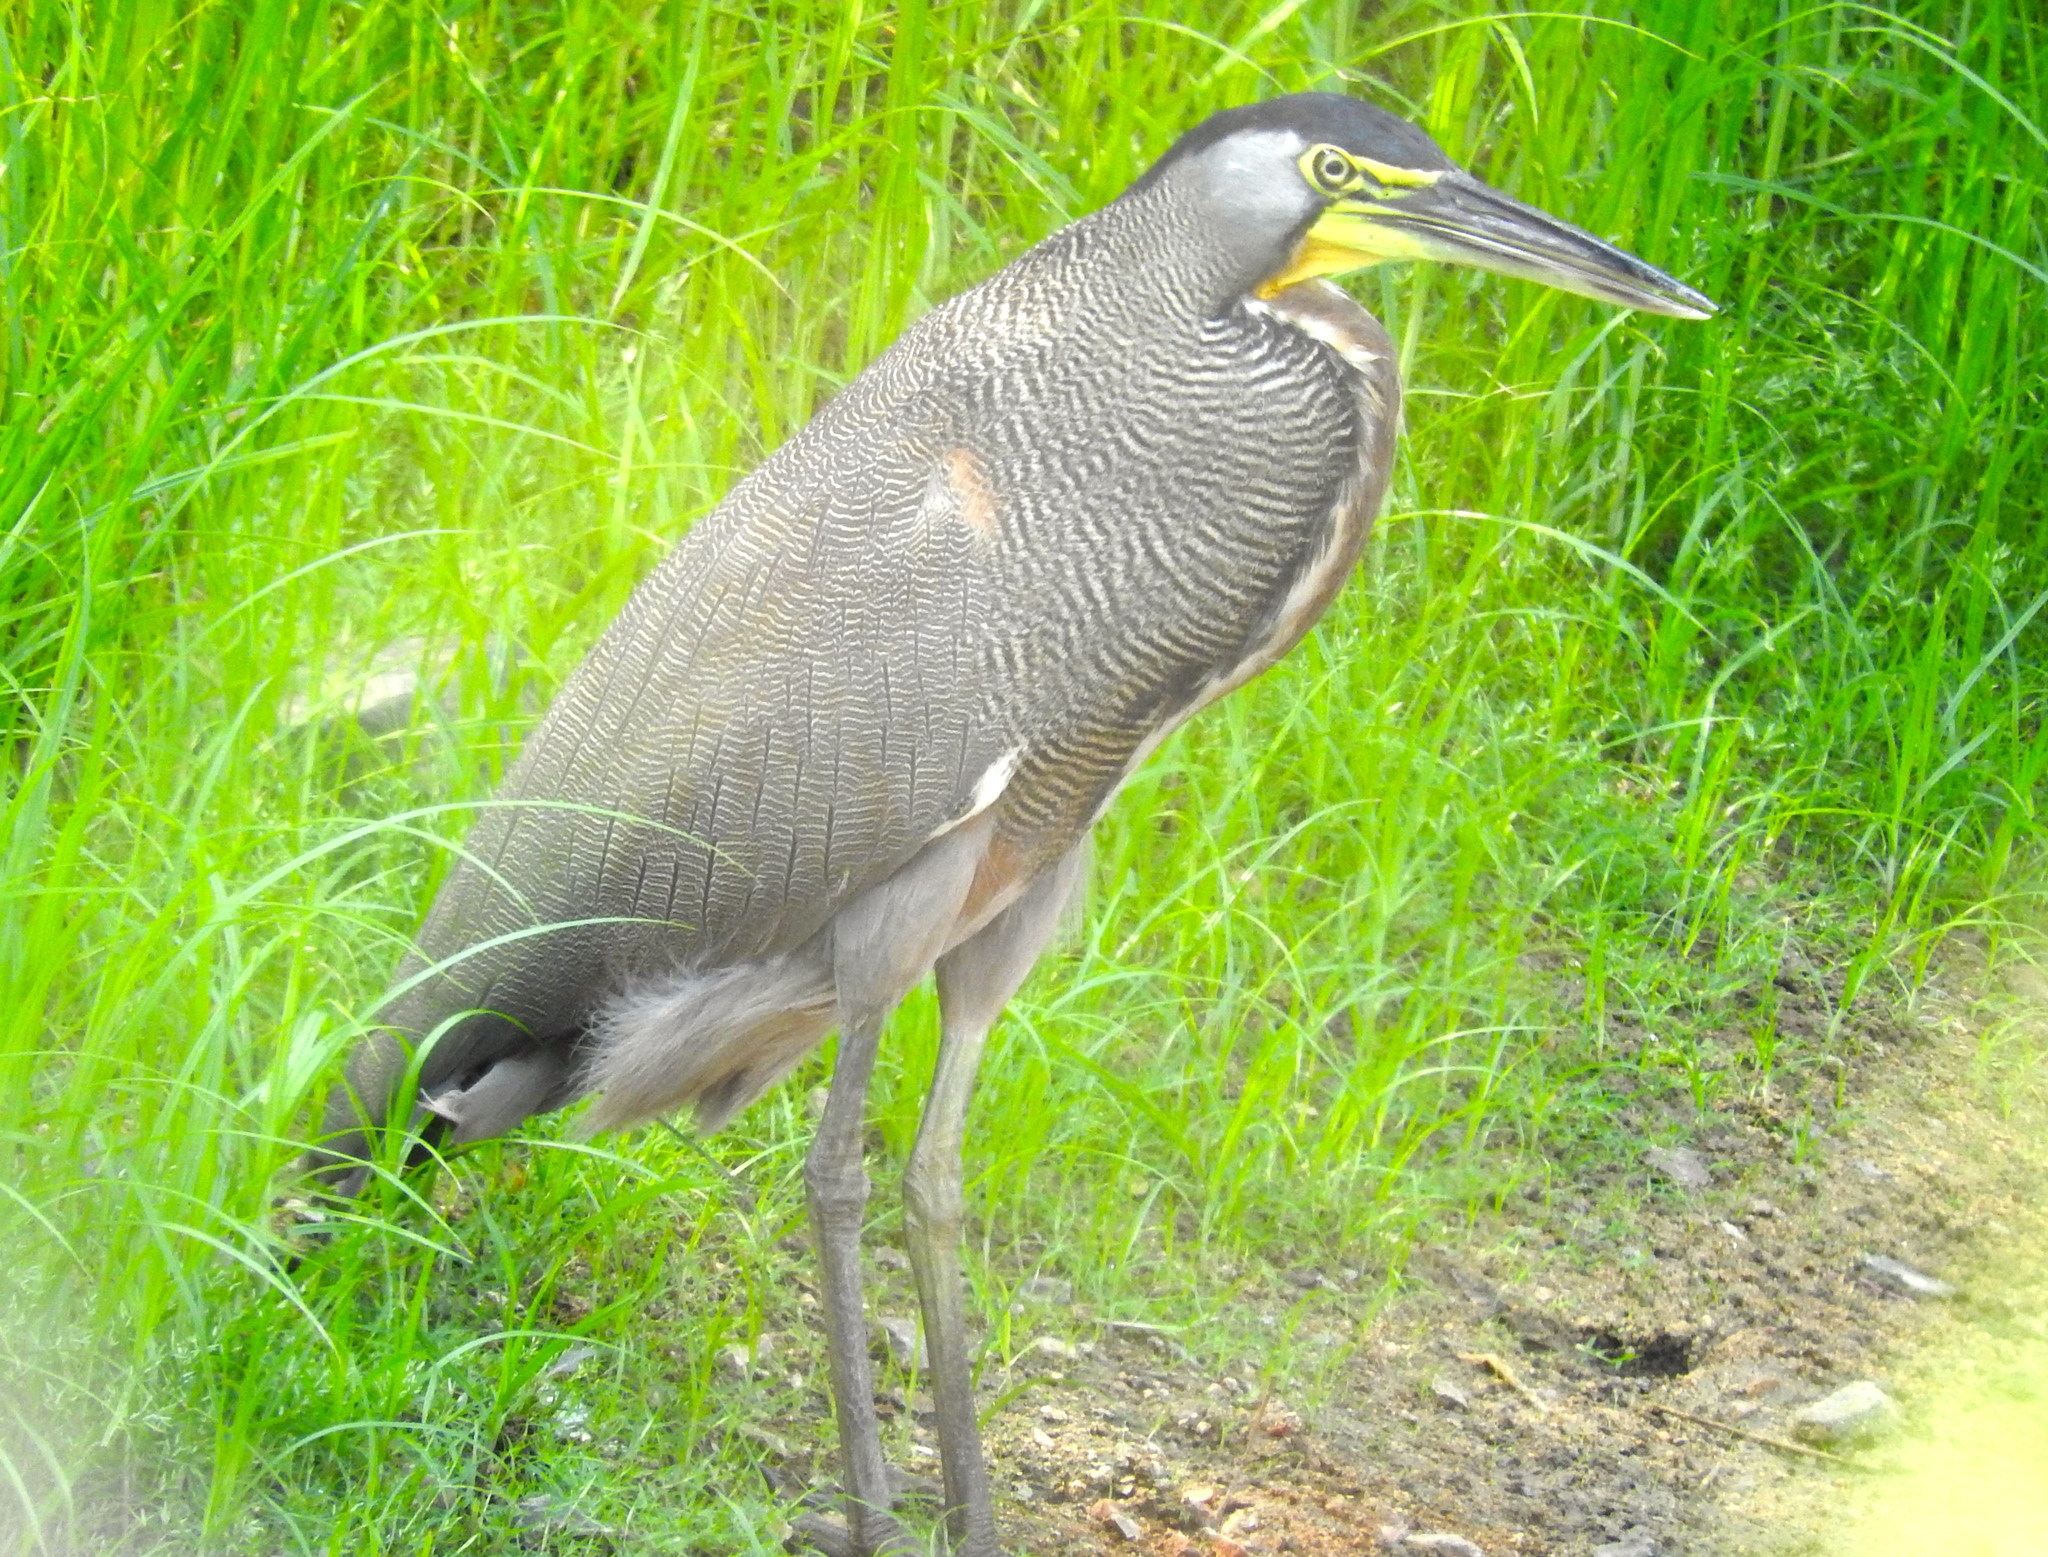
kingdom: Animalia
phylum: Chordata
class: Aves
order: Pelecaniformes
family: Ardeidae
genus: Tigrisoma
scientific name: Tigrisoma mexicanum
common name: Bare-throated tiger-heron
